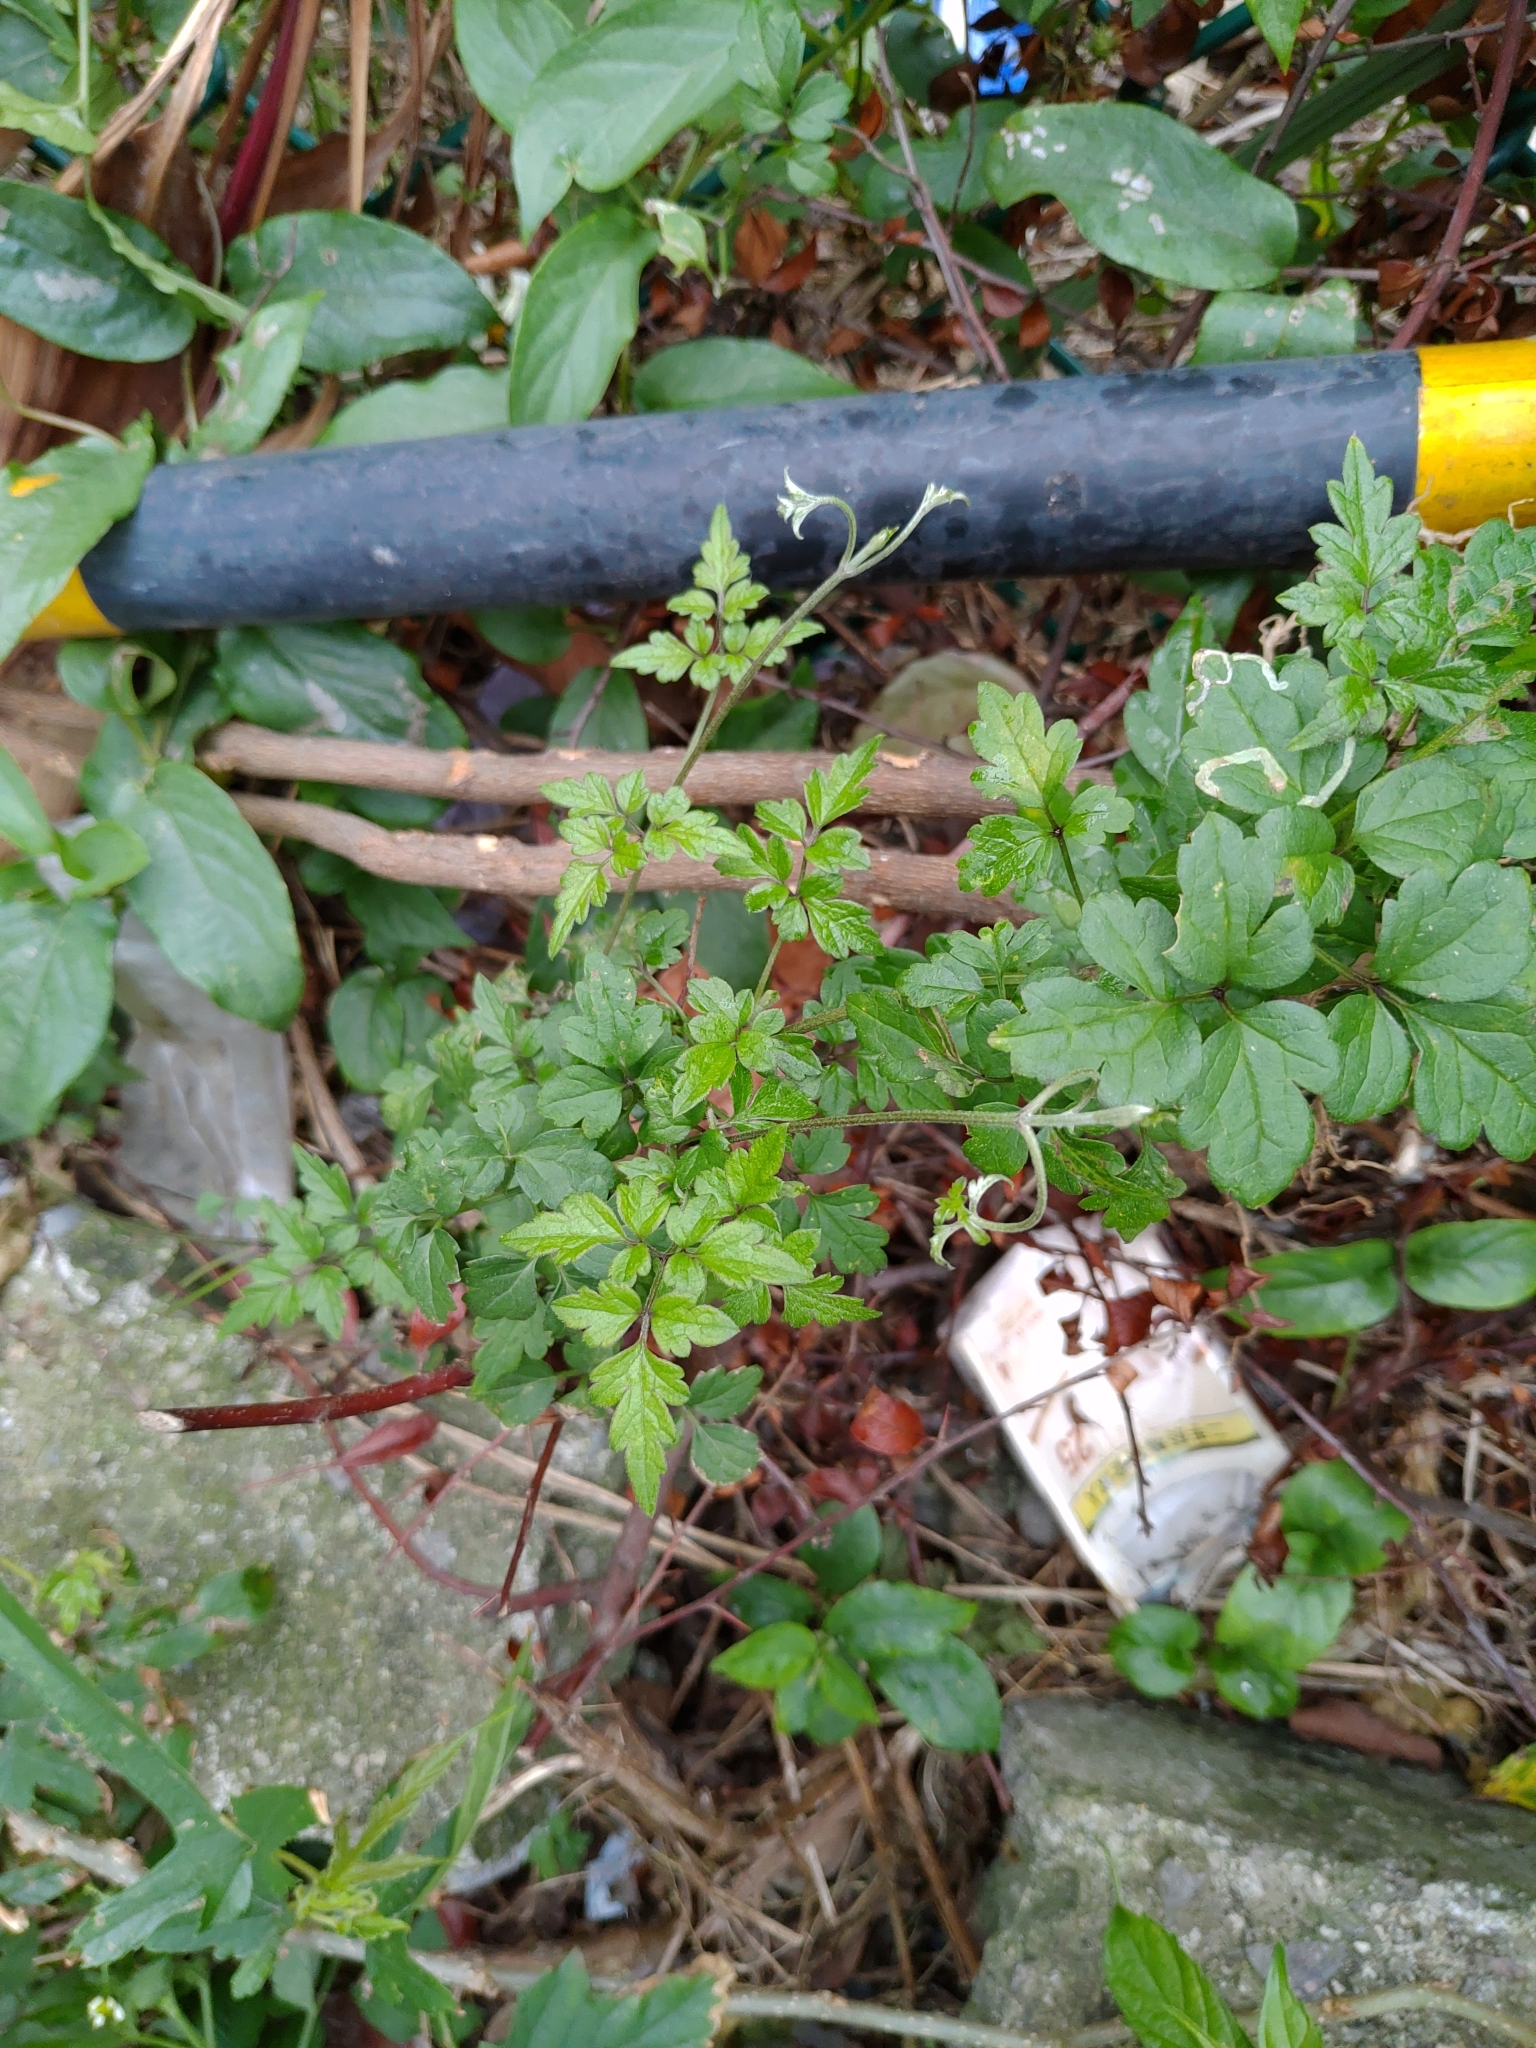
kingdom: Plantae
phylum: Tracheophyta
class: Magnoliopsida
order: Ranunculales
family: Ranunculaceae
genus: Clematis
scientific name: Clematis grata
